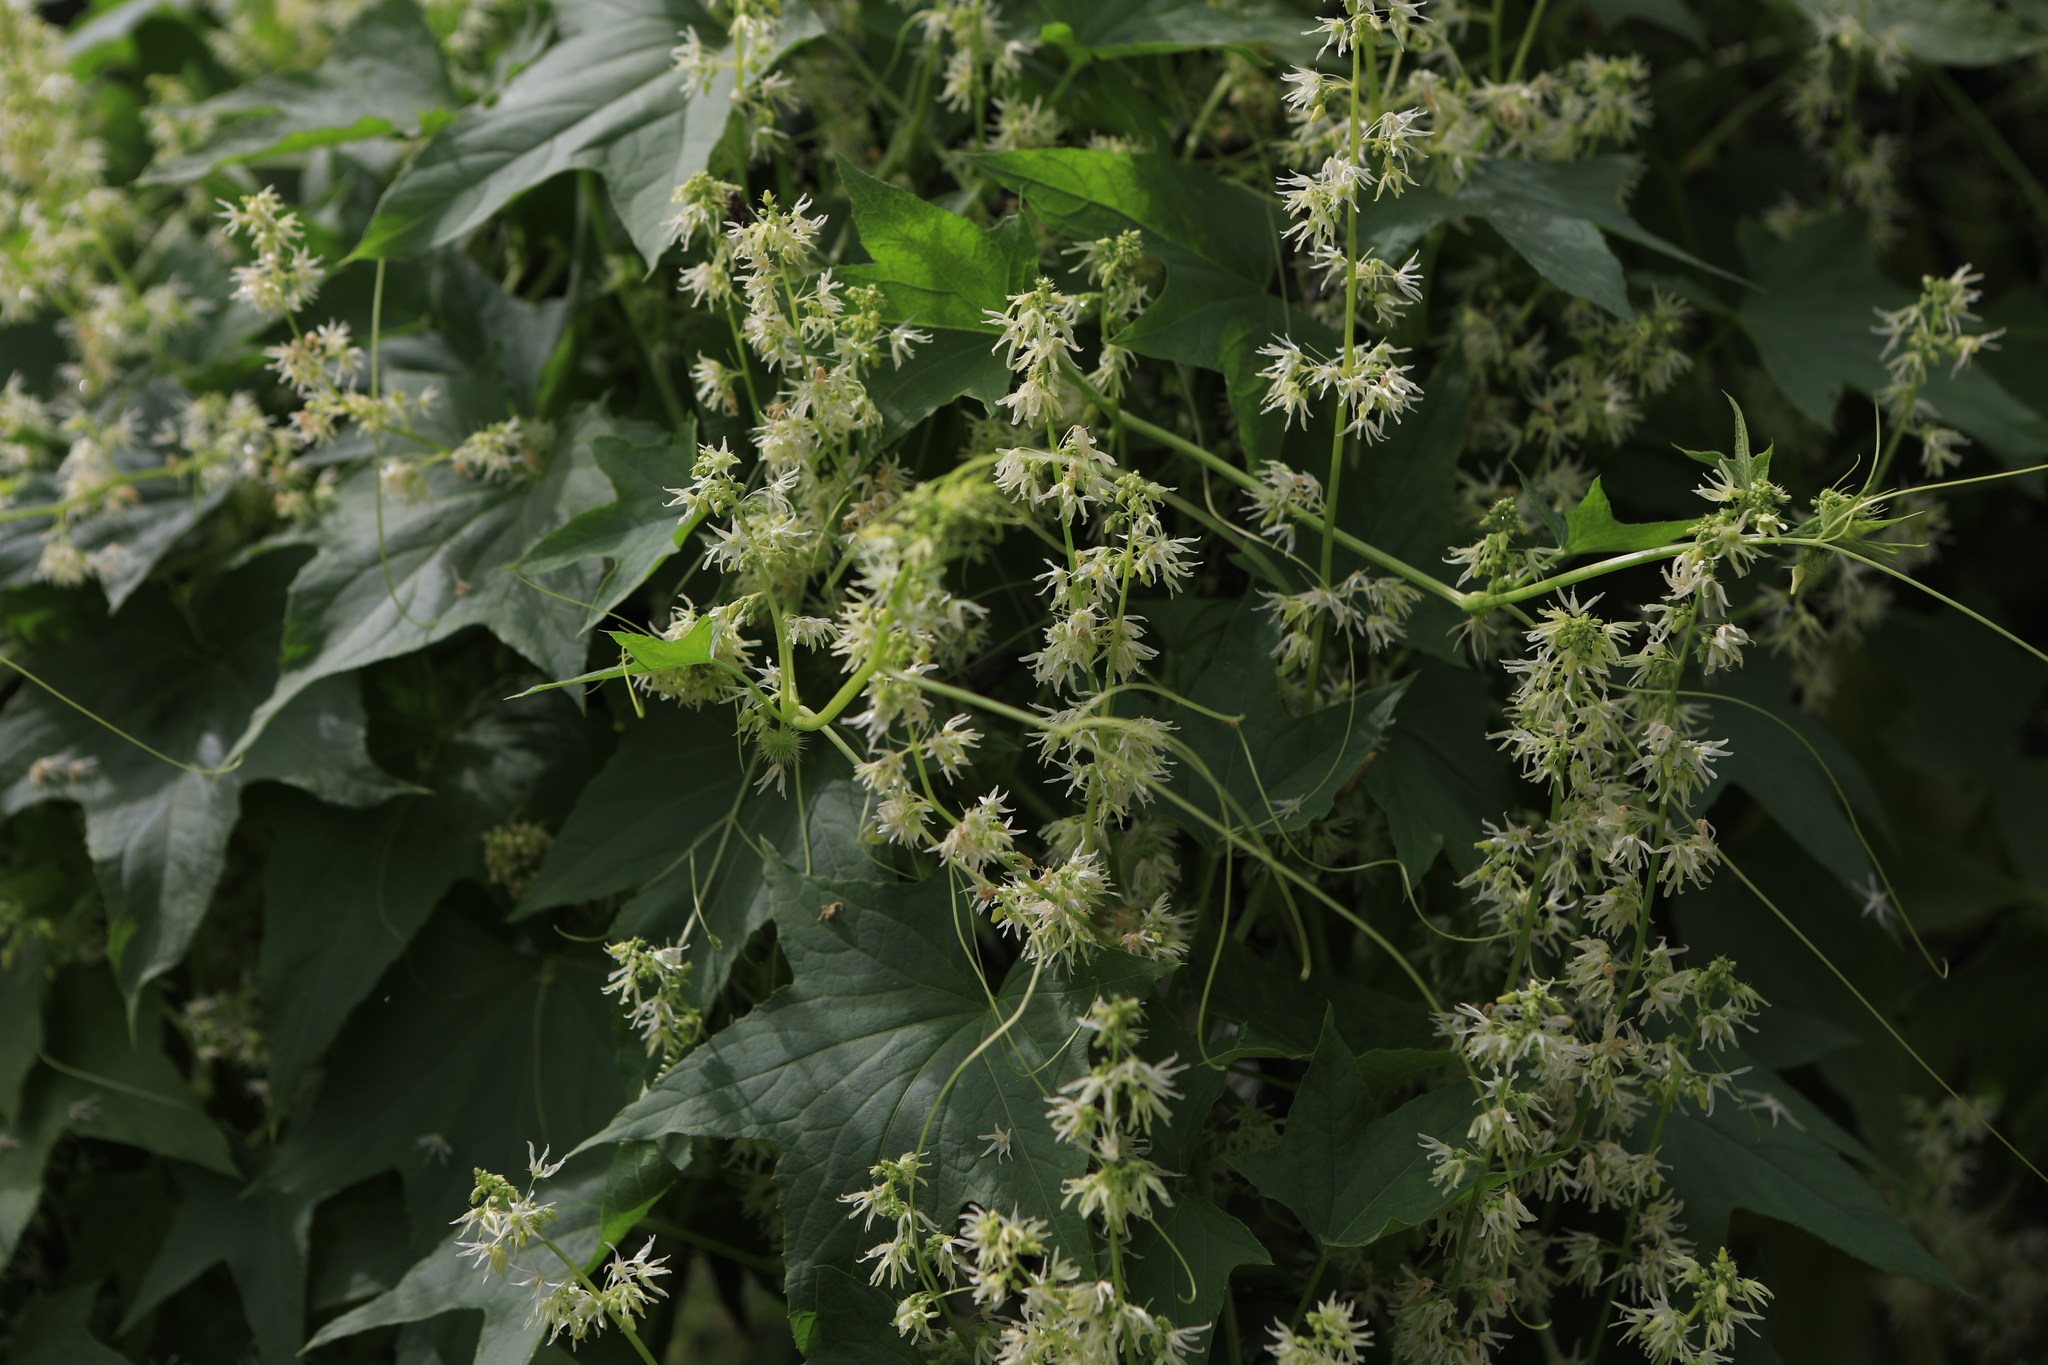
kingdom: Plantae
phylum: Tracheophyta
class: Magnoliopsida
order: Cucurbitales
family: Cucurbitaceae
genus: Echinocystis
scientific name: Echinocystis lobata
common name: Wild cucumber
